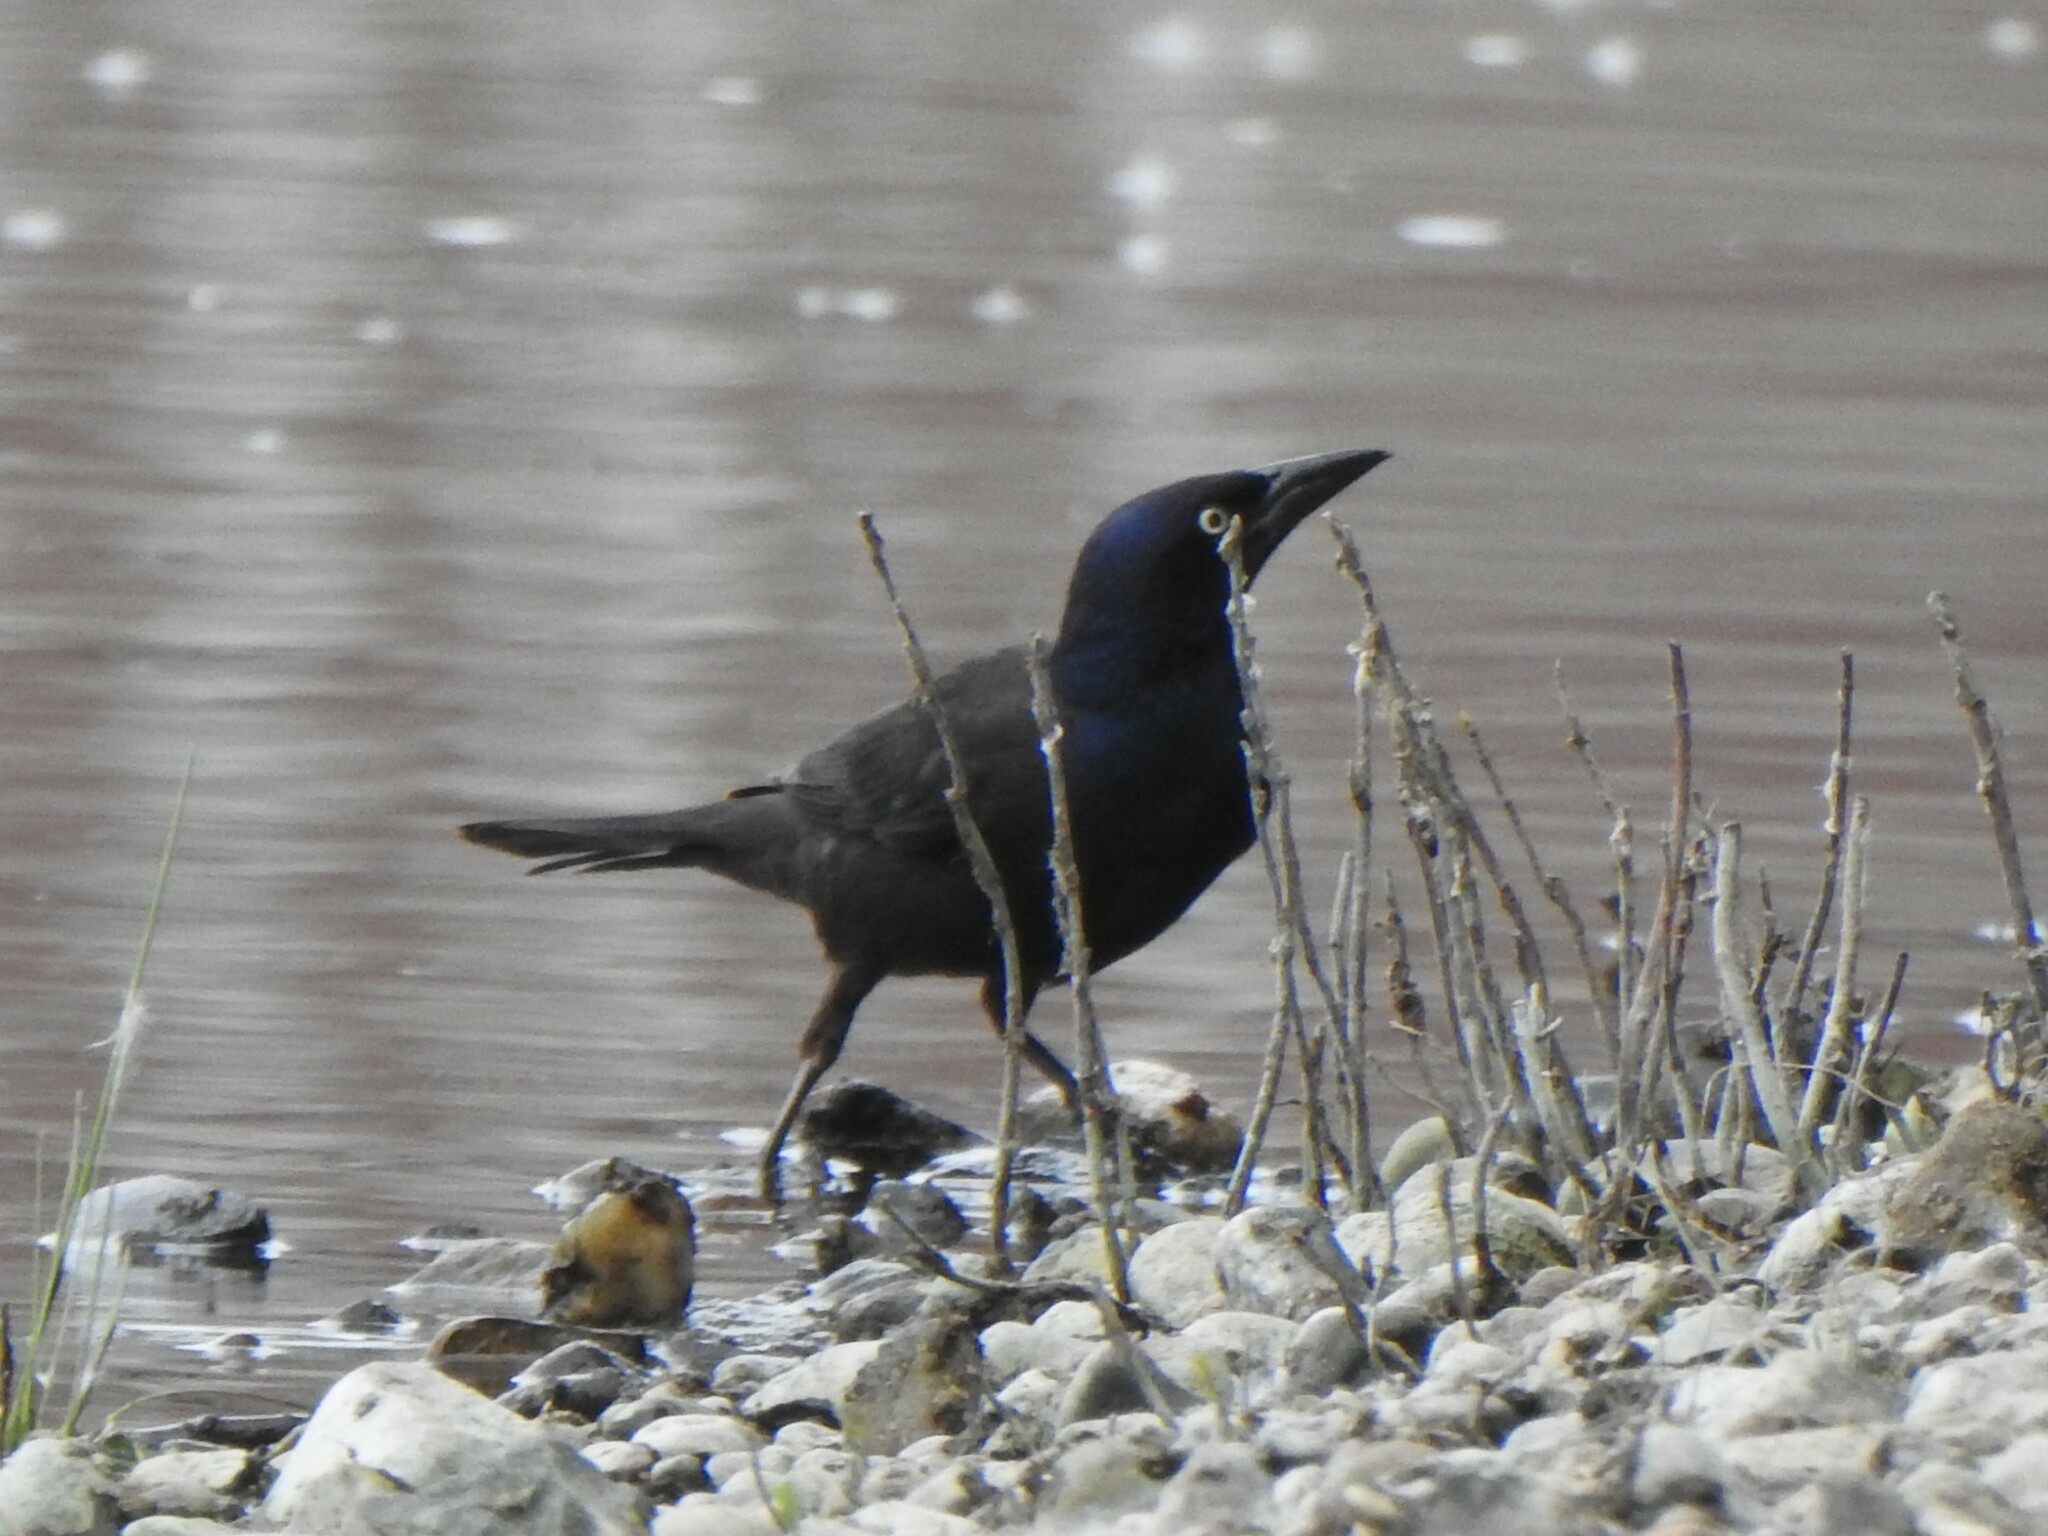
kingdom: Animalia
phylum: Chordata
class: Aves
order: Passeriformes
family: Icteridae
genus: Quiscalus
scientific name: Quiscalus quiscula
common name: Common grackle
